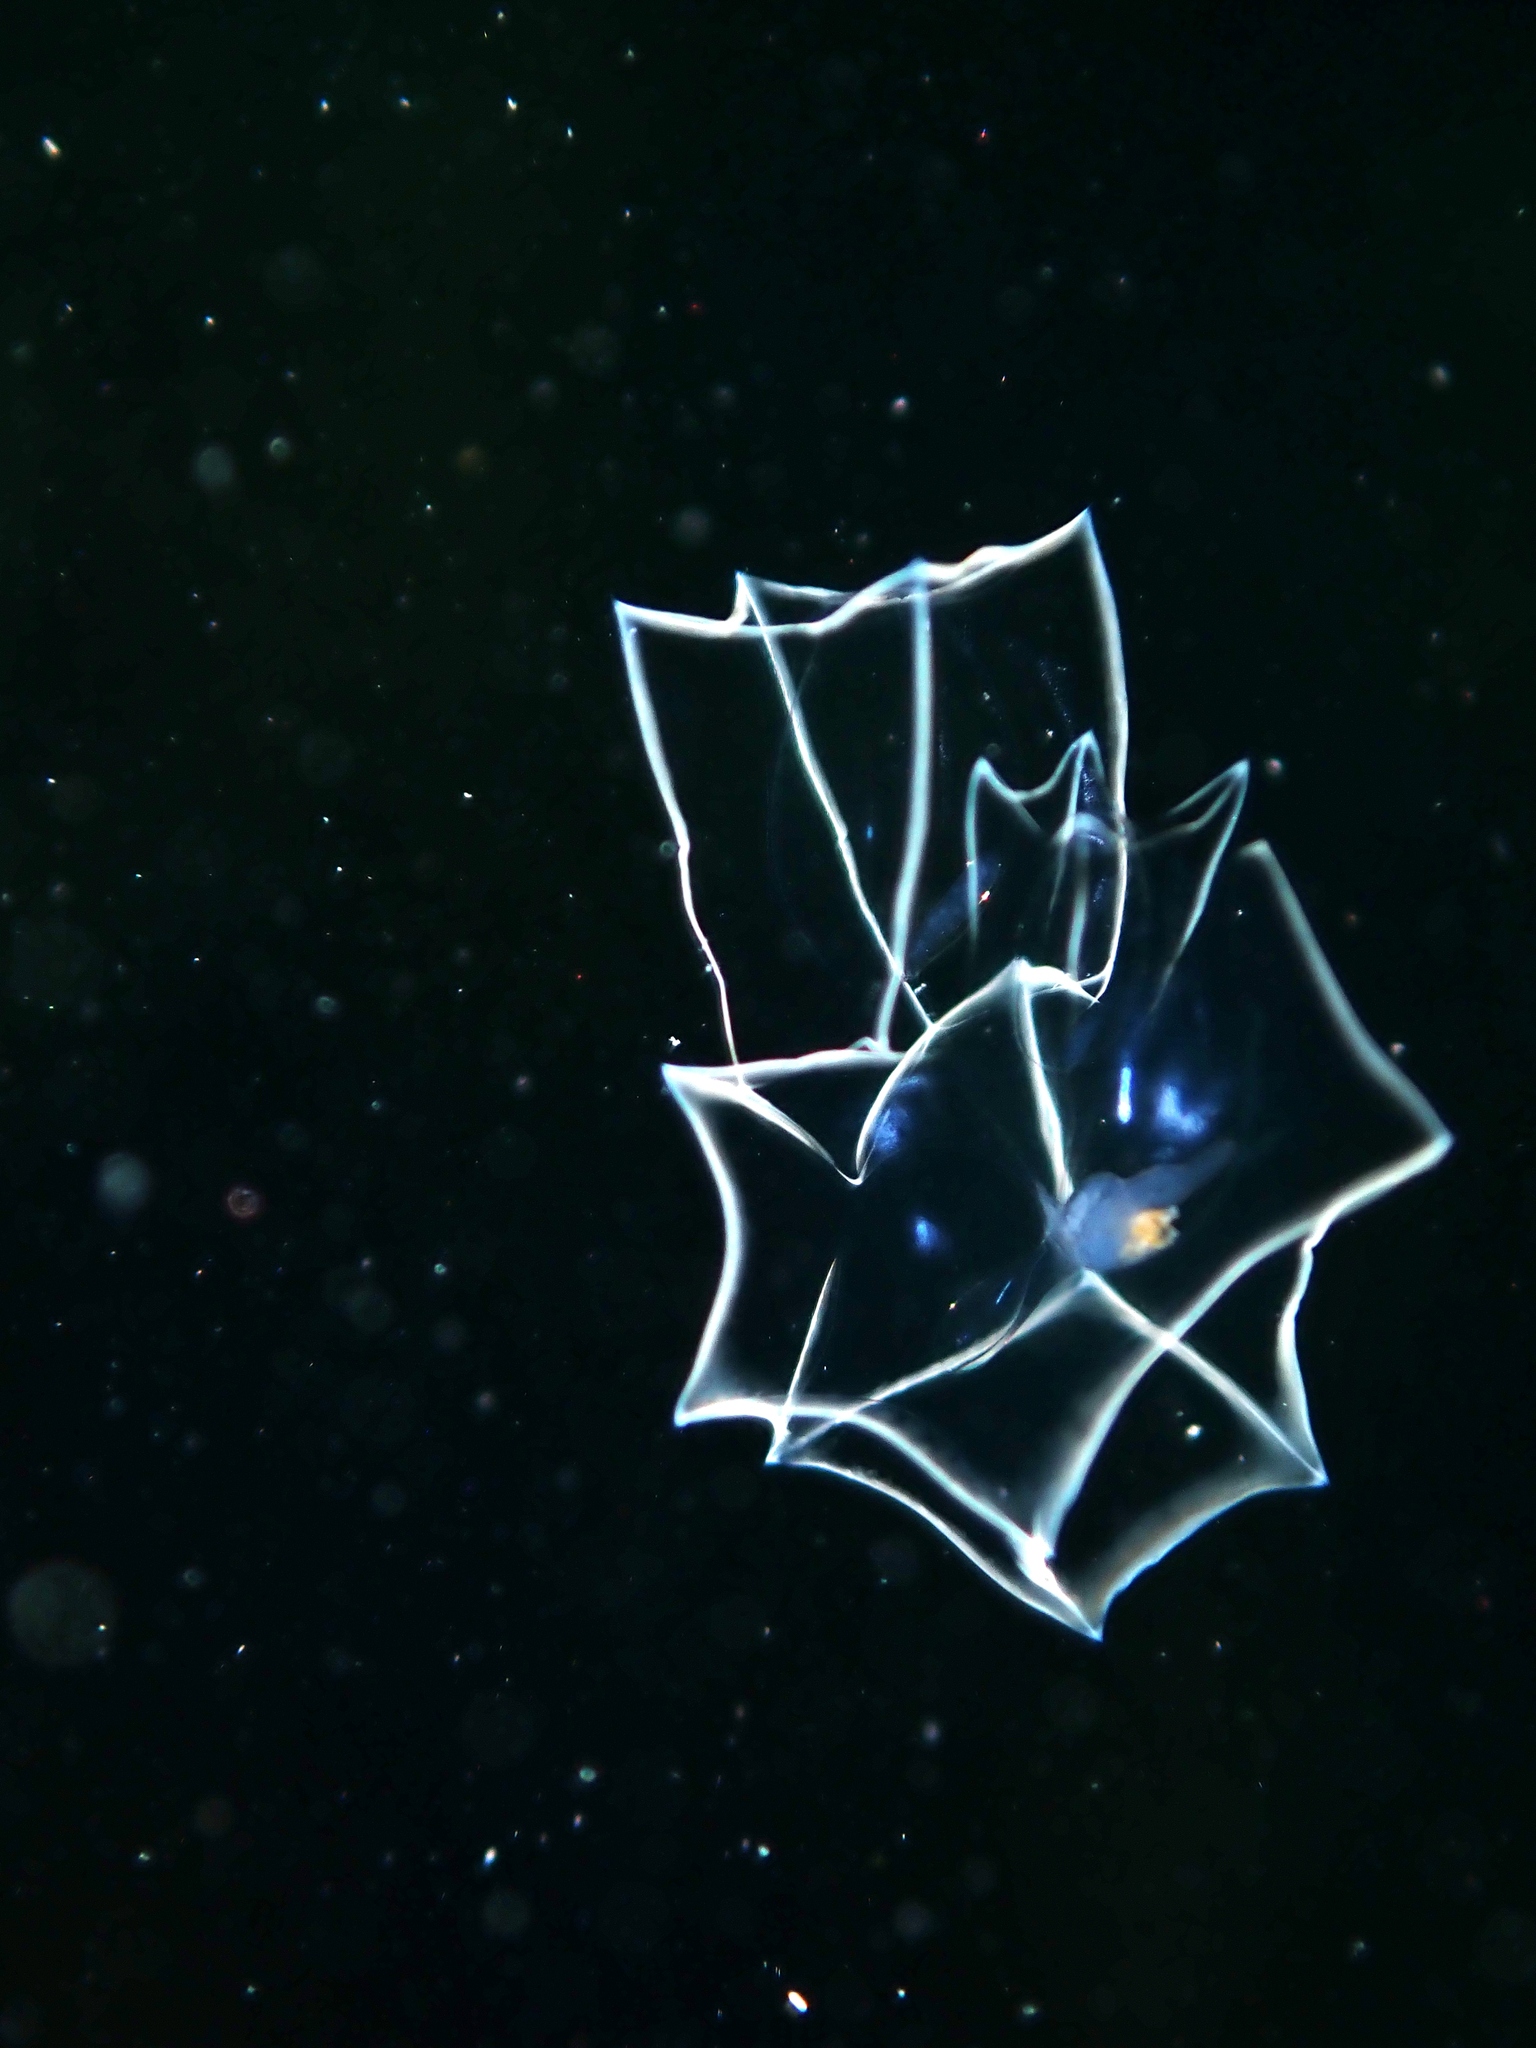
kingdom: Animalia
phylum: Cnidaria
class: Hydrozoa
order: Siphonophorae
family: Abylidae
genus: Bassia
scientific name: Bassia bassensis
